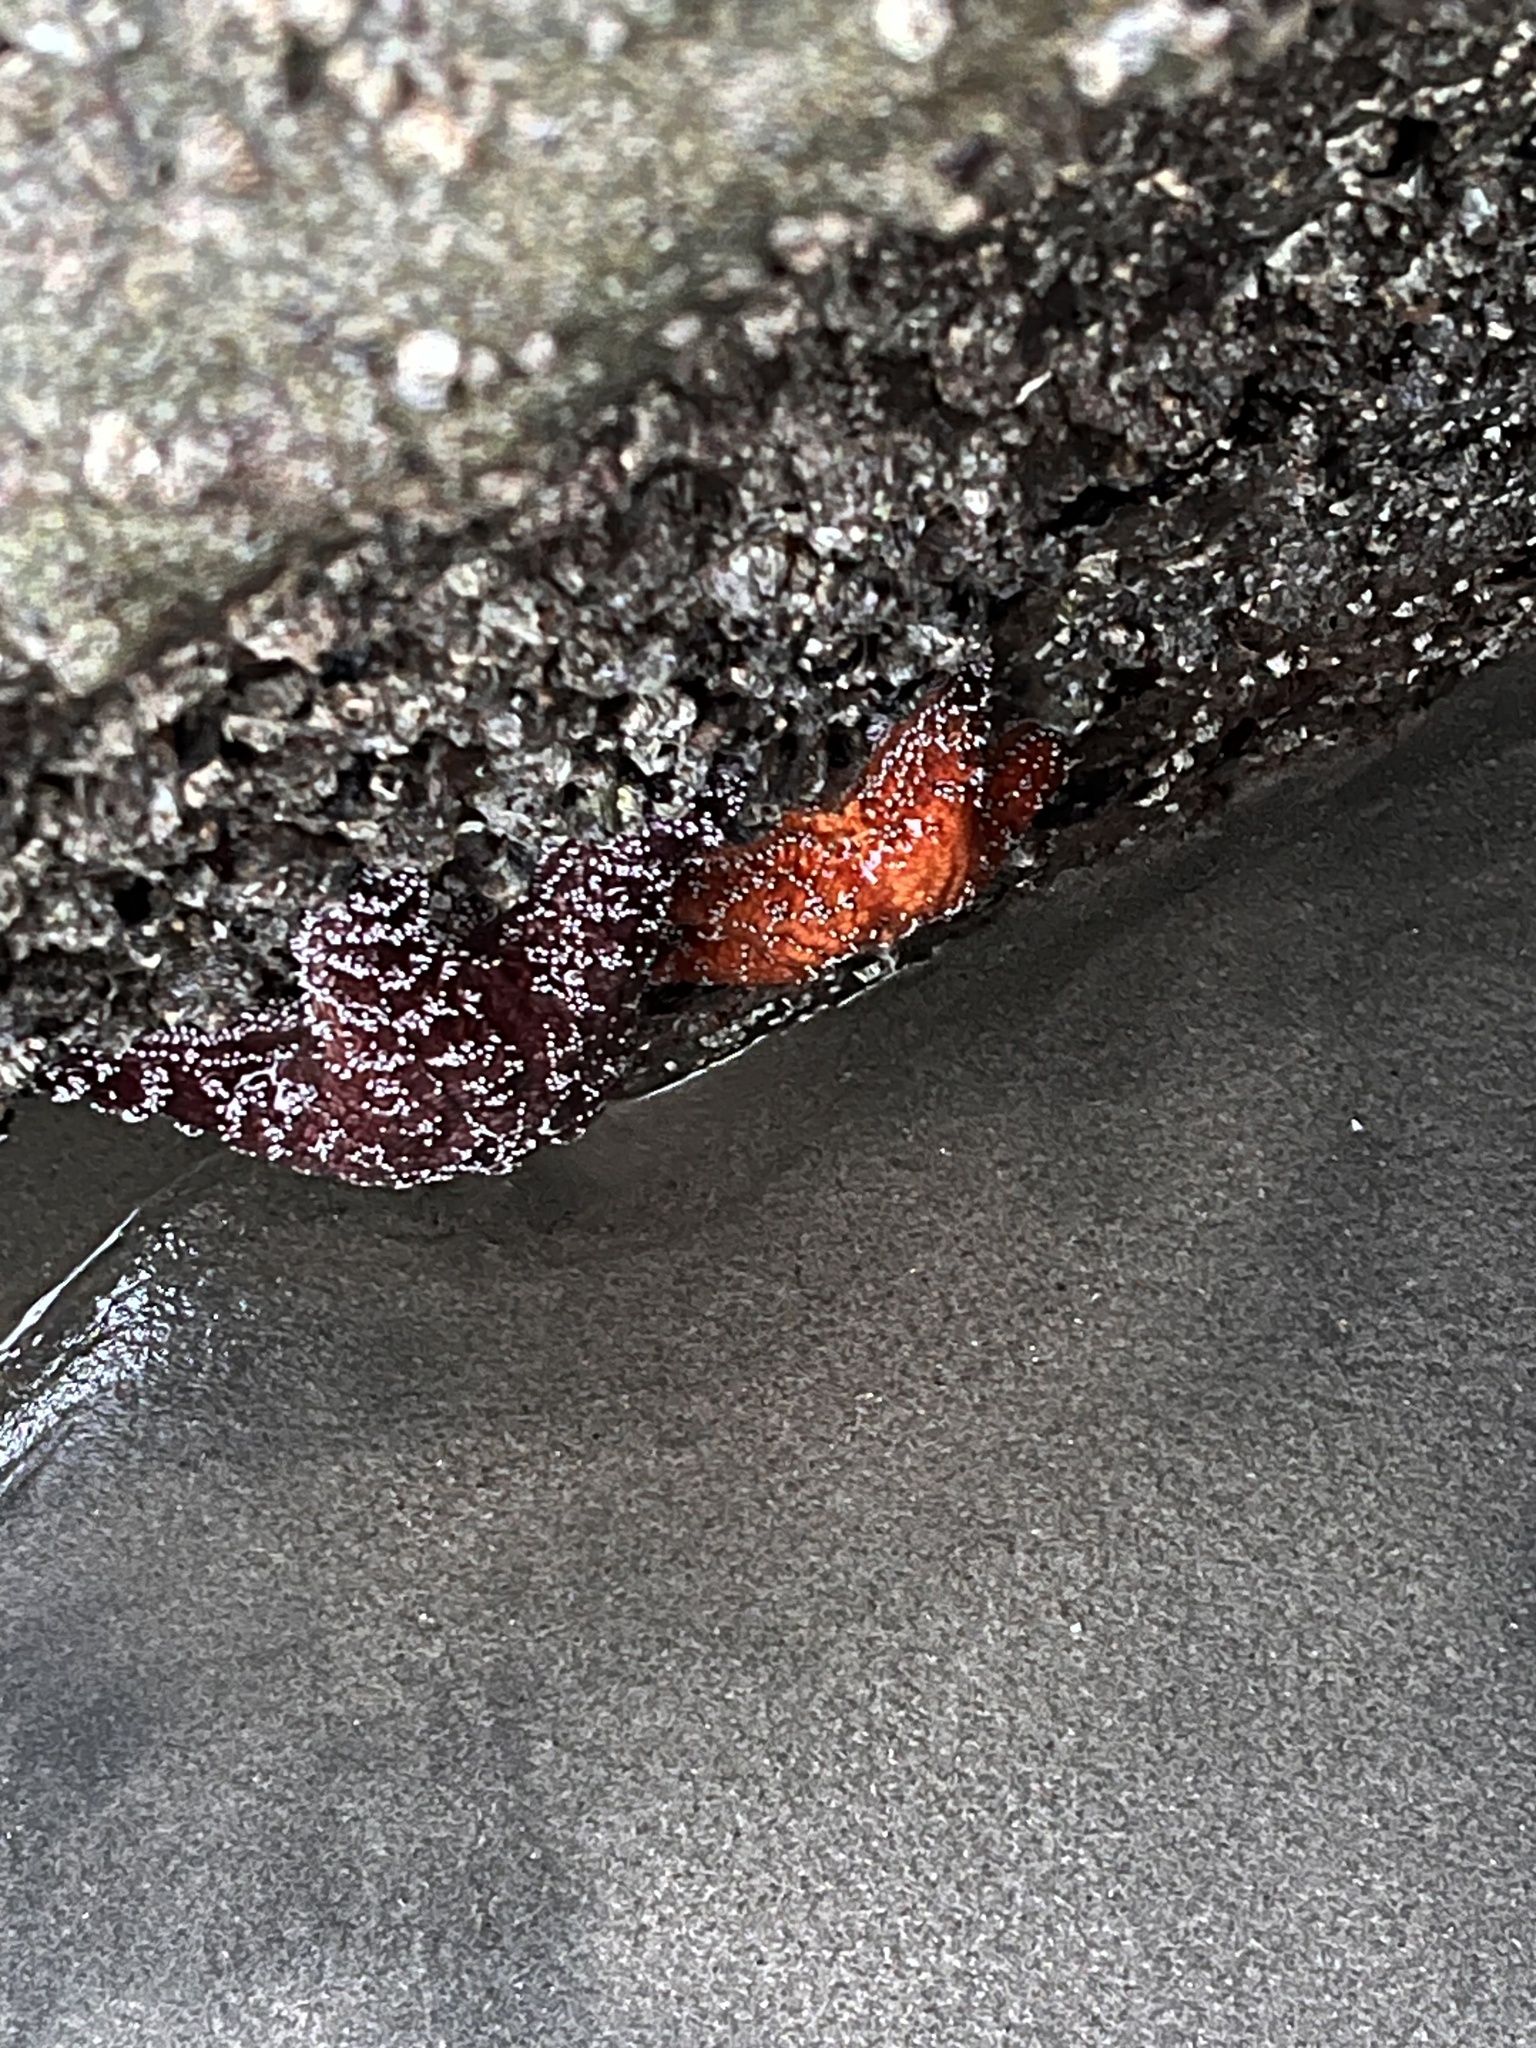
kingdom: Animalia
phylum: Echinodermata
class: Asteroidea
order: Forcipulatida
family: Asteriidae
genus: Pisaster
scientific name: Pisaster ochraceus
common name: Ochre stars
